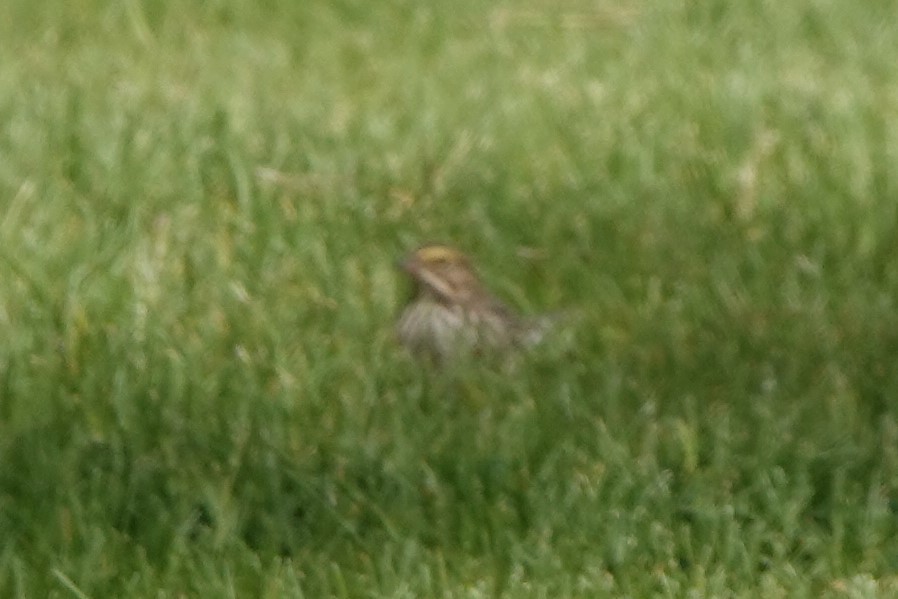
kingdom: Animalia
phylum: Chordata
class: Aves
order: Passeriformes
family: Passerellidae
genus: Passerculus
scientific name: Passerculus sandwichensis
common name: Savannah sparrow
